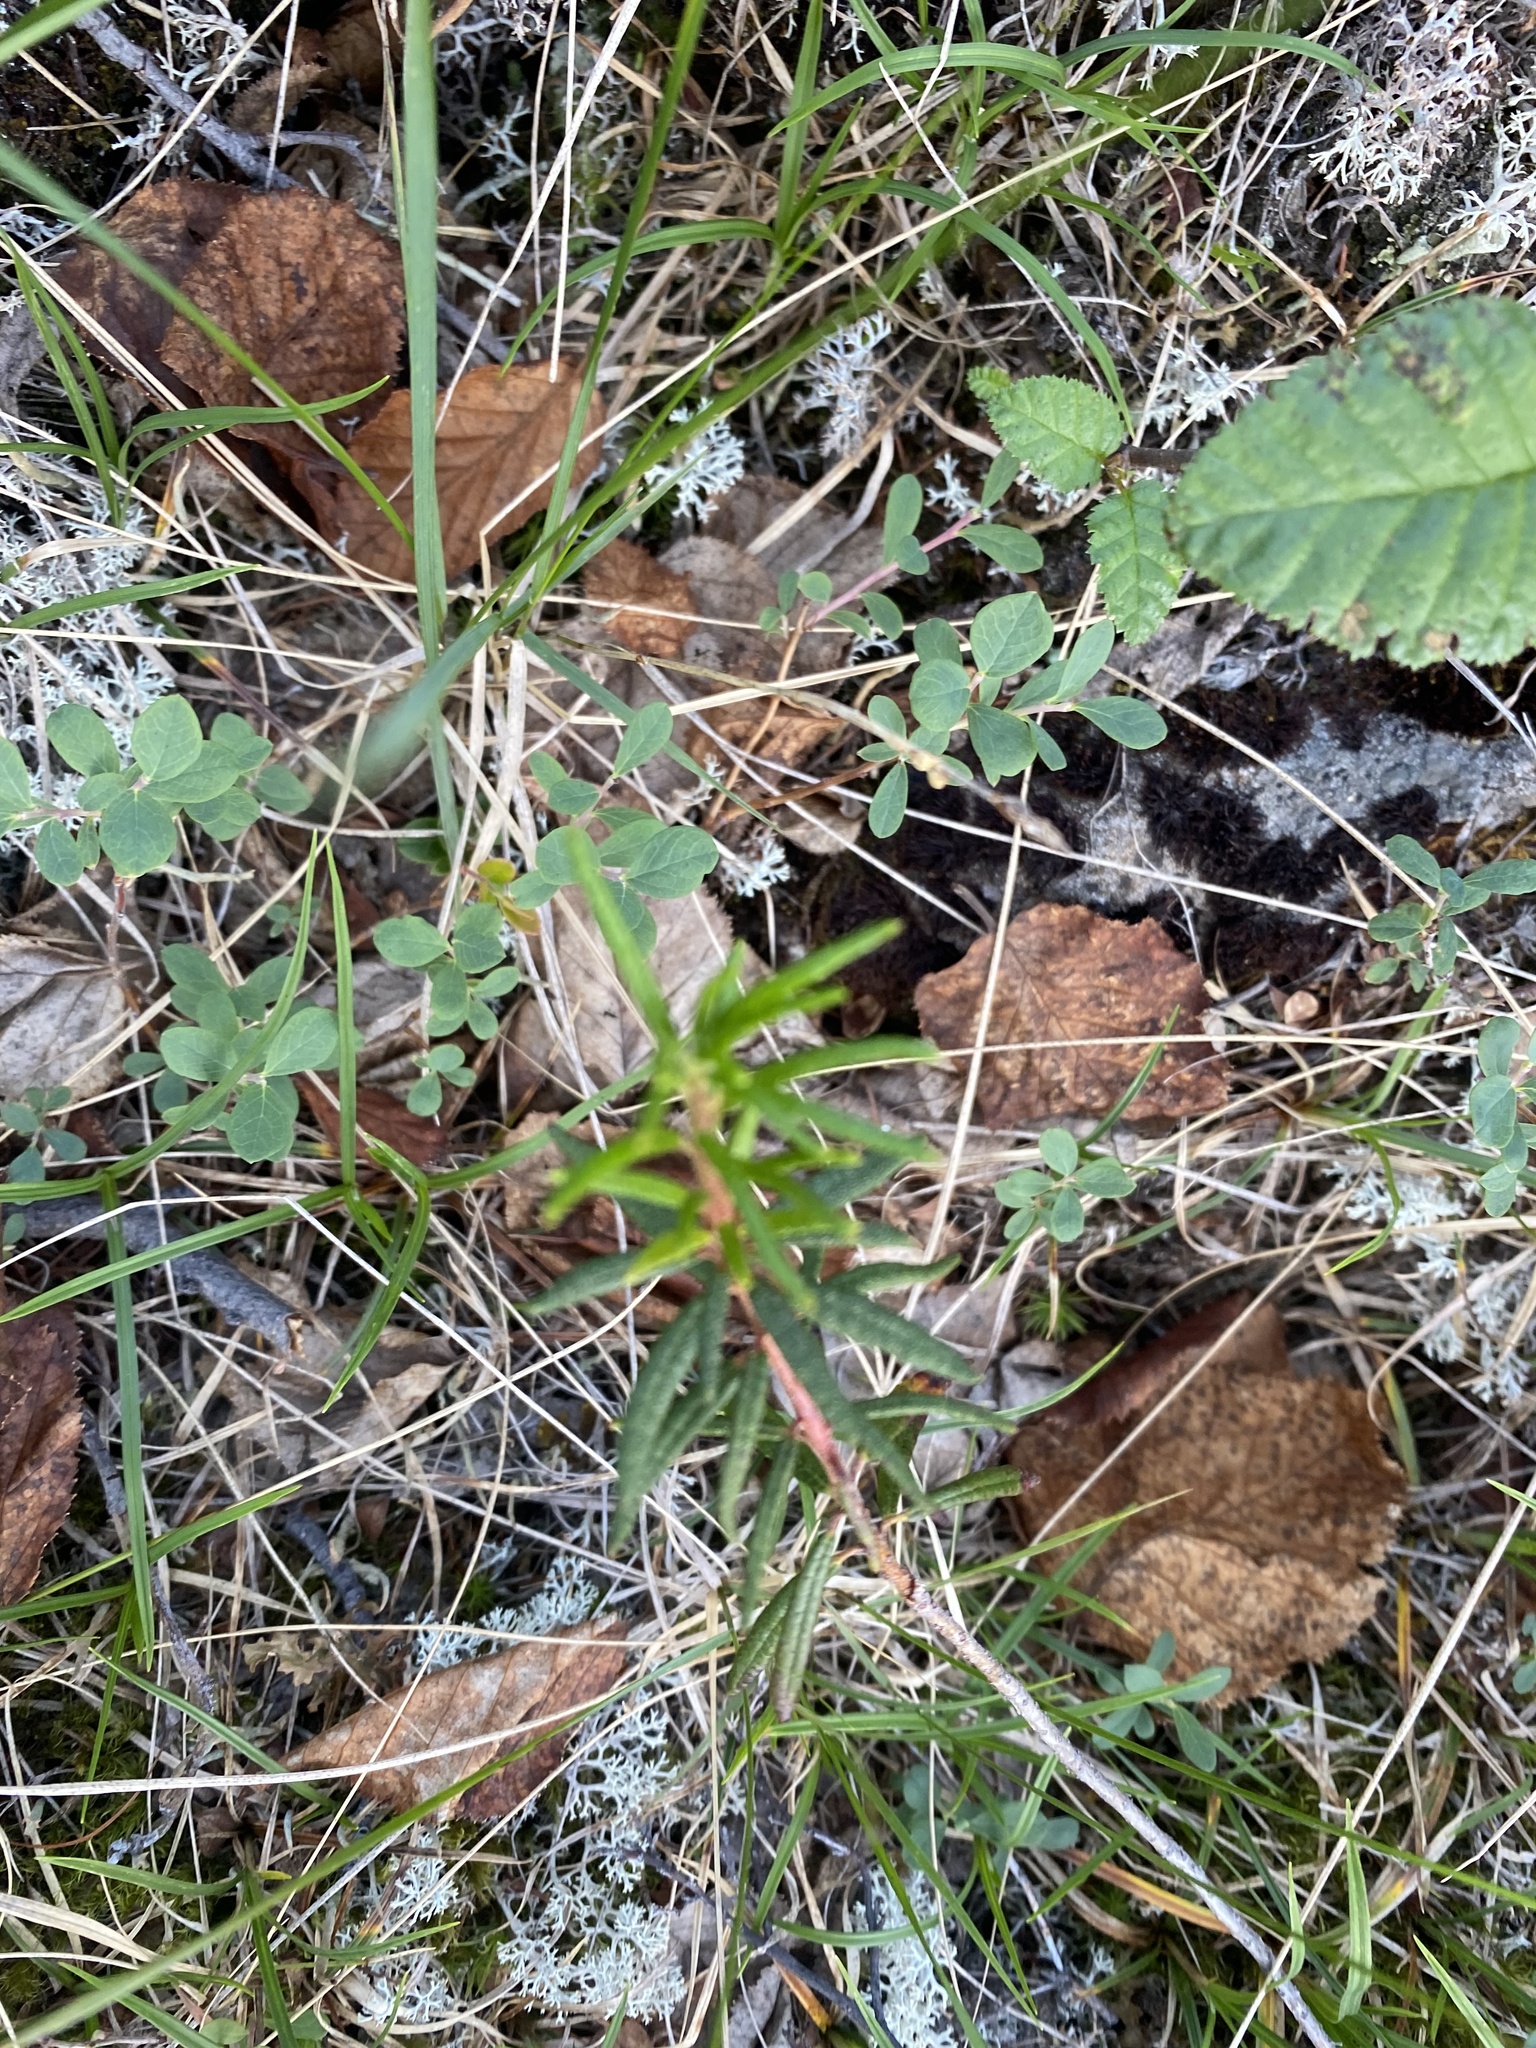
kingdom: Plantae
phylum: Tracheophyta
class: Magnoliopsida
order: Ericales
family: Ericaceae
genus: Rhododendron
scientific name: Rhododendron tomentosum
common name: Marsh labrador tea
